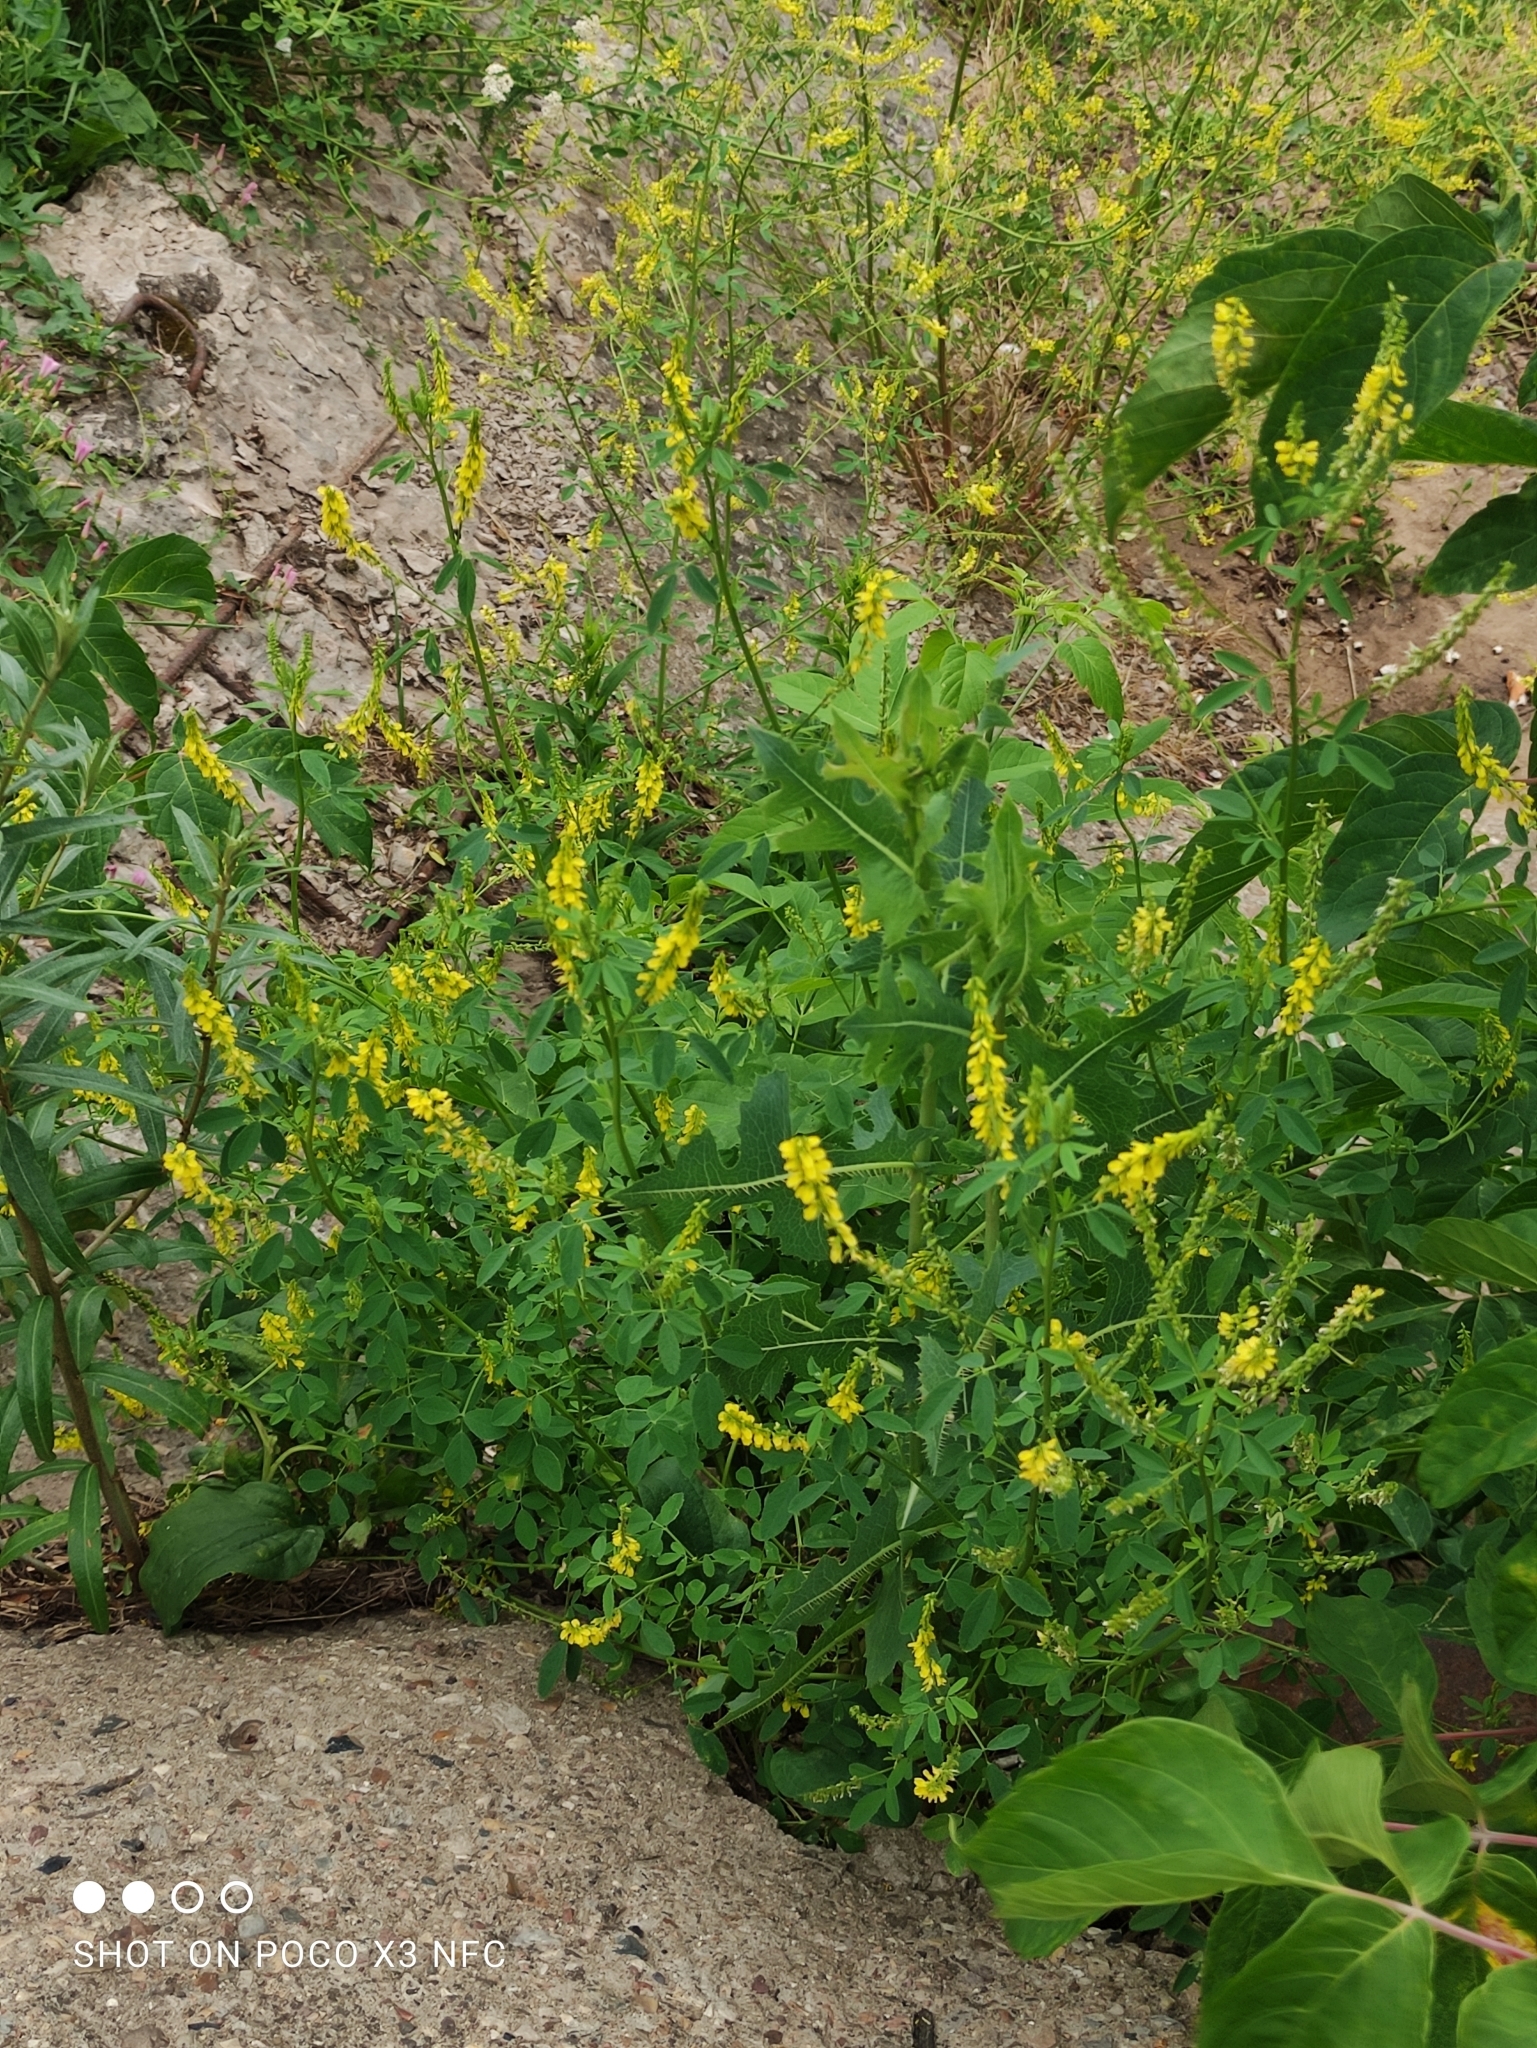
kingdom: Plantae
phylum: Tracheophyta
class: Magnoliopsida
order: Fabales
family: Fabaceae
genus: Melilotus
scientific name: Melilotus officinalis
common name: Sweetclover
